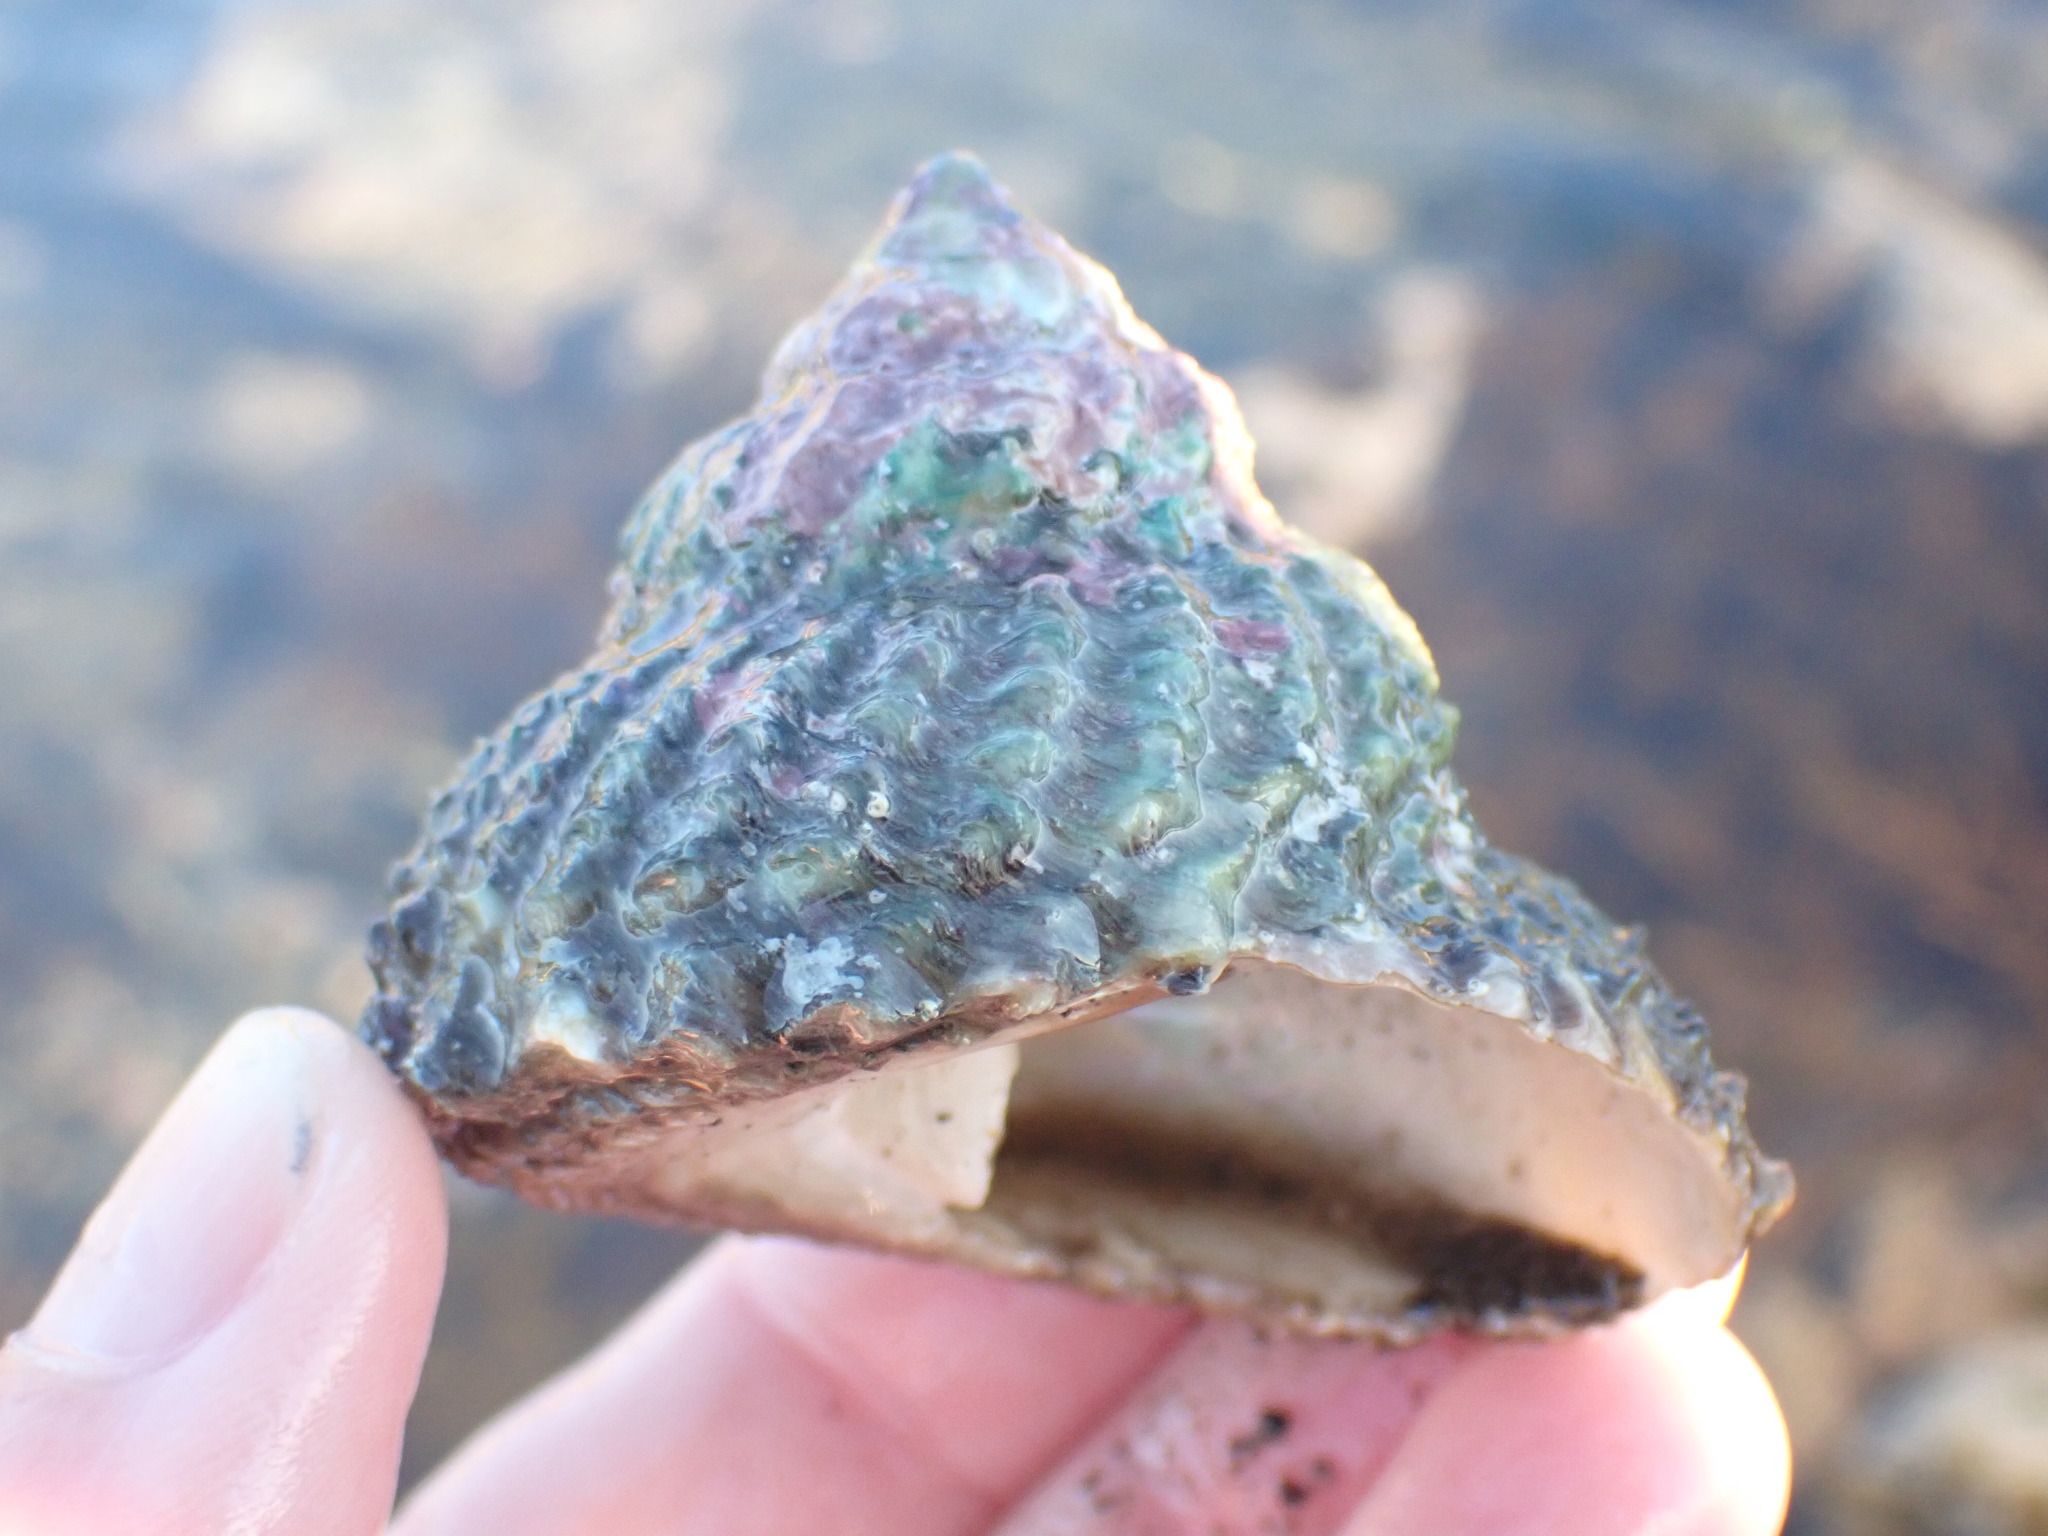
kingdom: Animalia
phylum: Mollusca
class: Gastropoda
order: Trochida
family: Turbinidae
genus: Cookia
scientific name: Cookia sulcata
